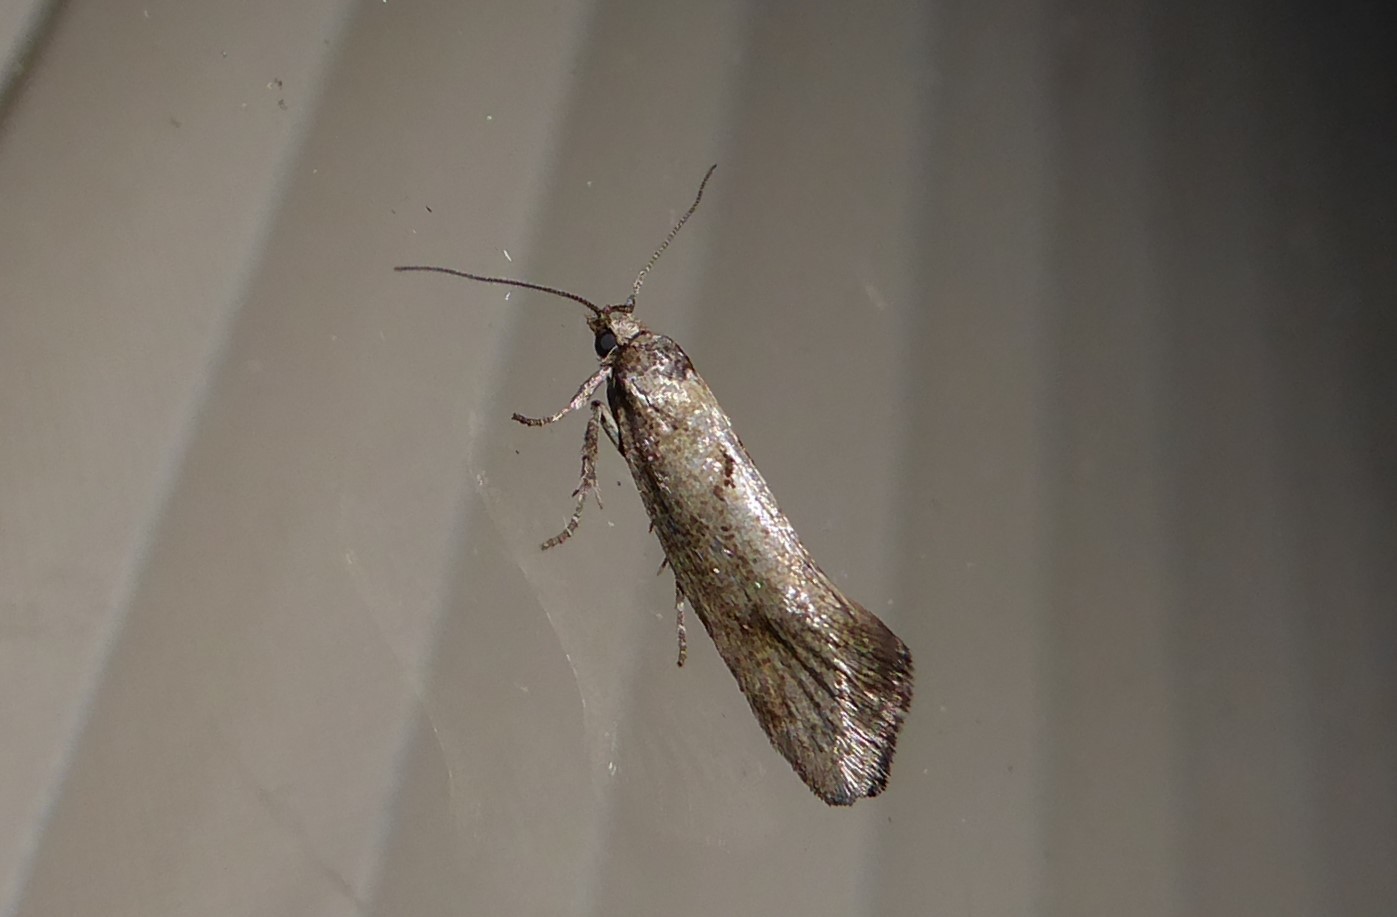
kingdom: Animalia
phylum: Arthropoda
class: Insecta
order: Lepidoptera
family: Oecophoridae
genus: Tingena
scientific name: Tingena brachyacma
